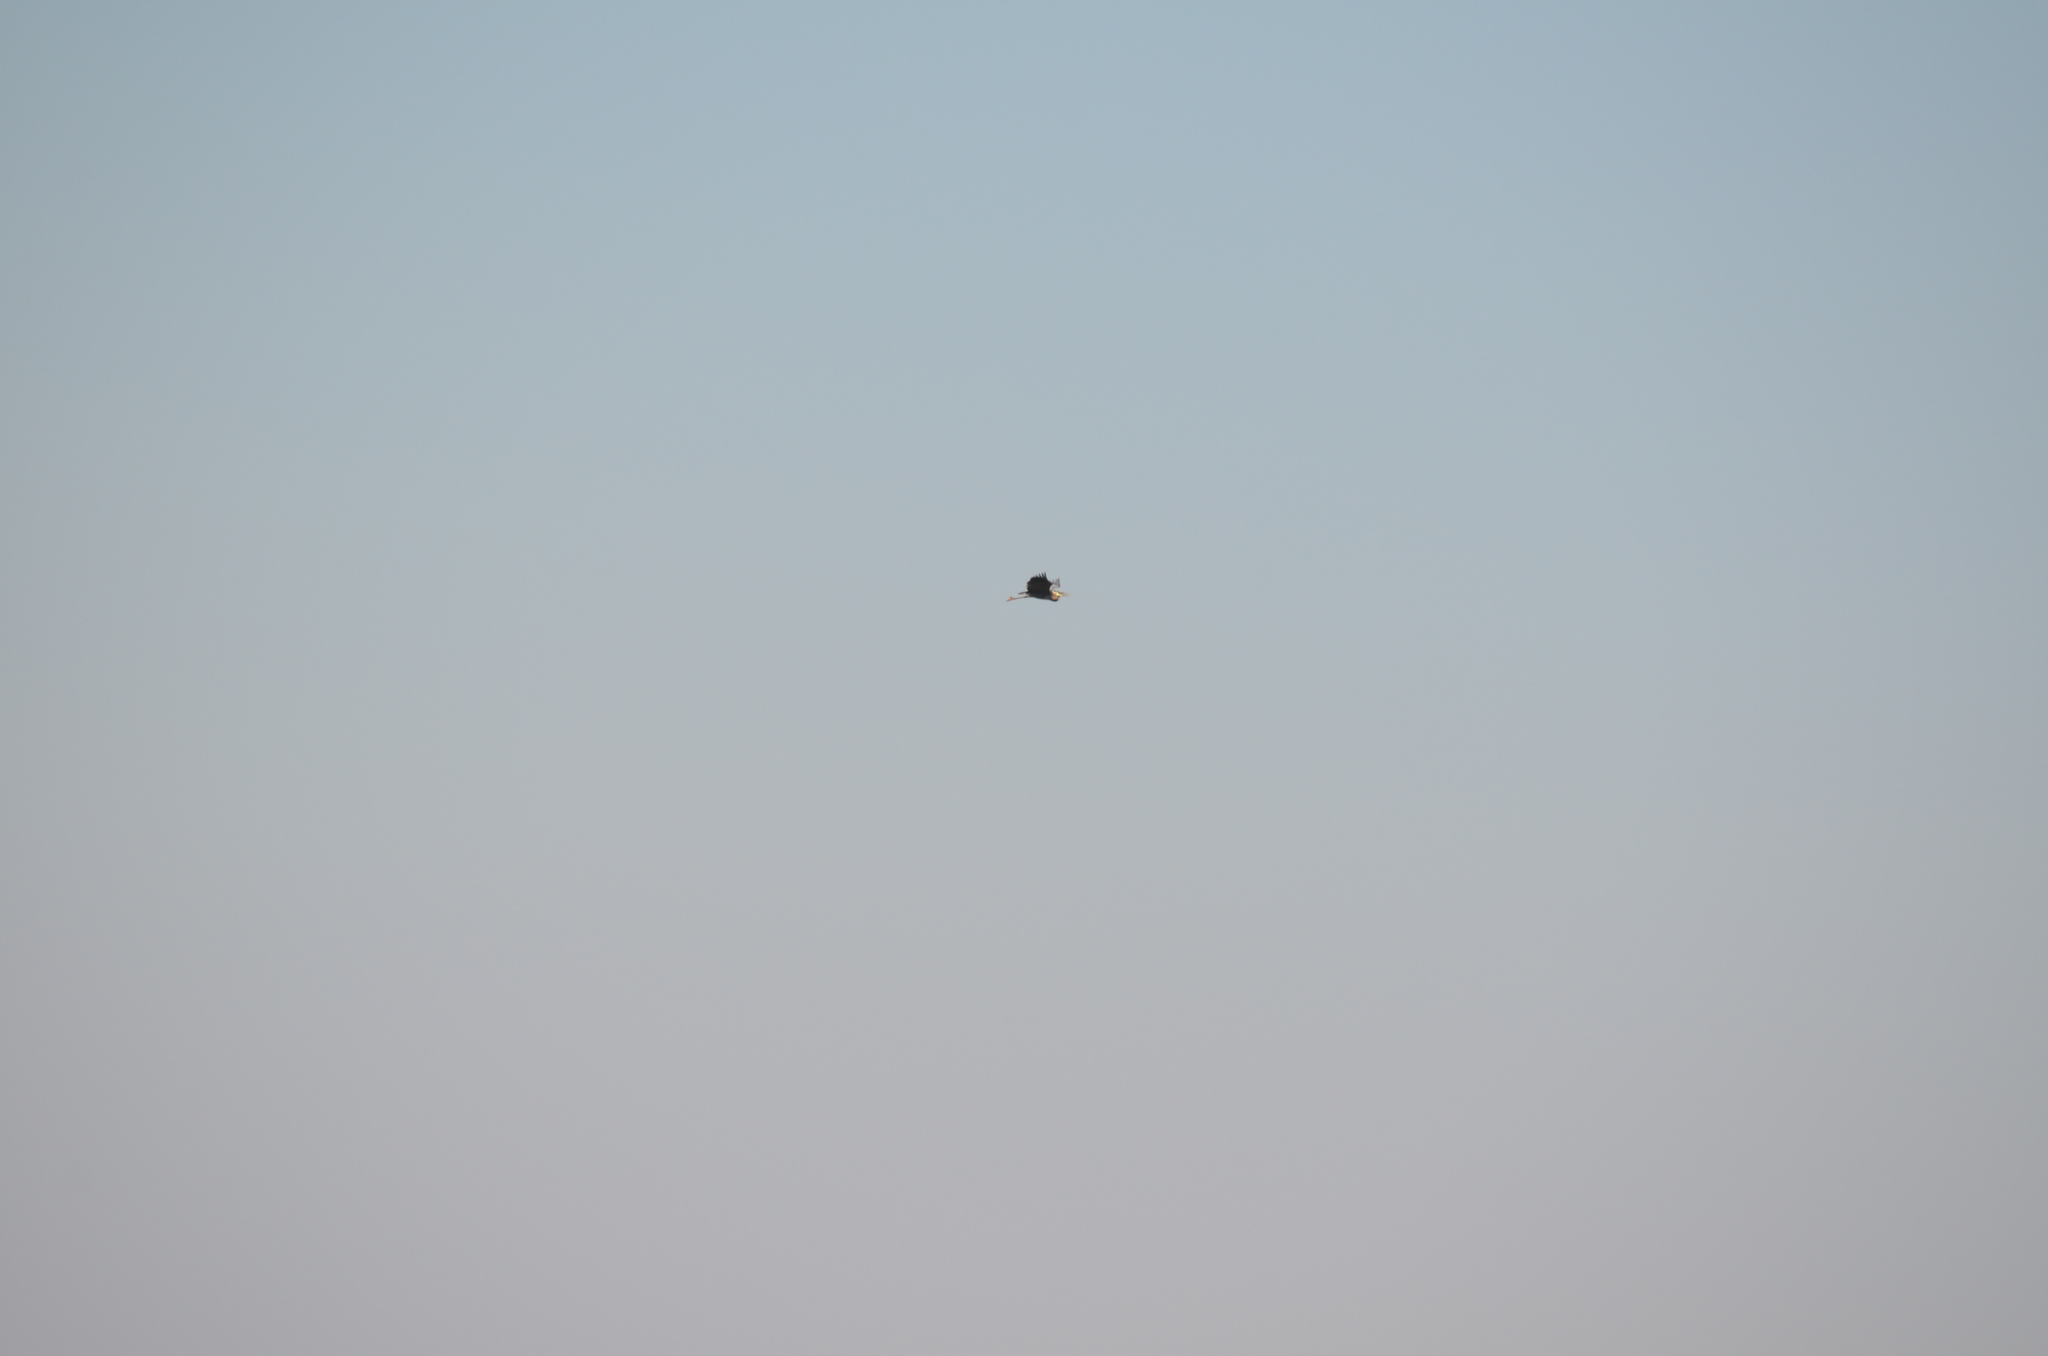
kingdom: Animalia
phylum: Chordata
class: Aves
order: Pelecaniformes
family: Ardeidae
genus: Ardea
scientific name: Ardea herodias
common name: Great blue heron
